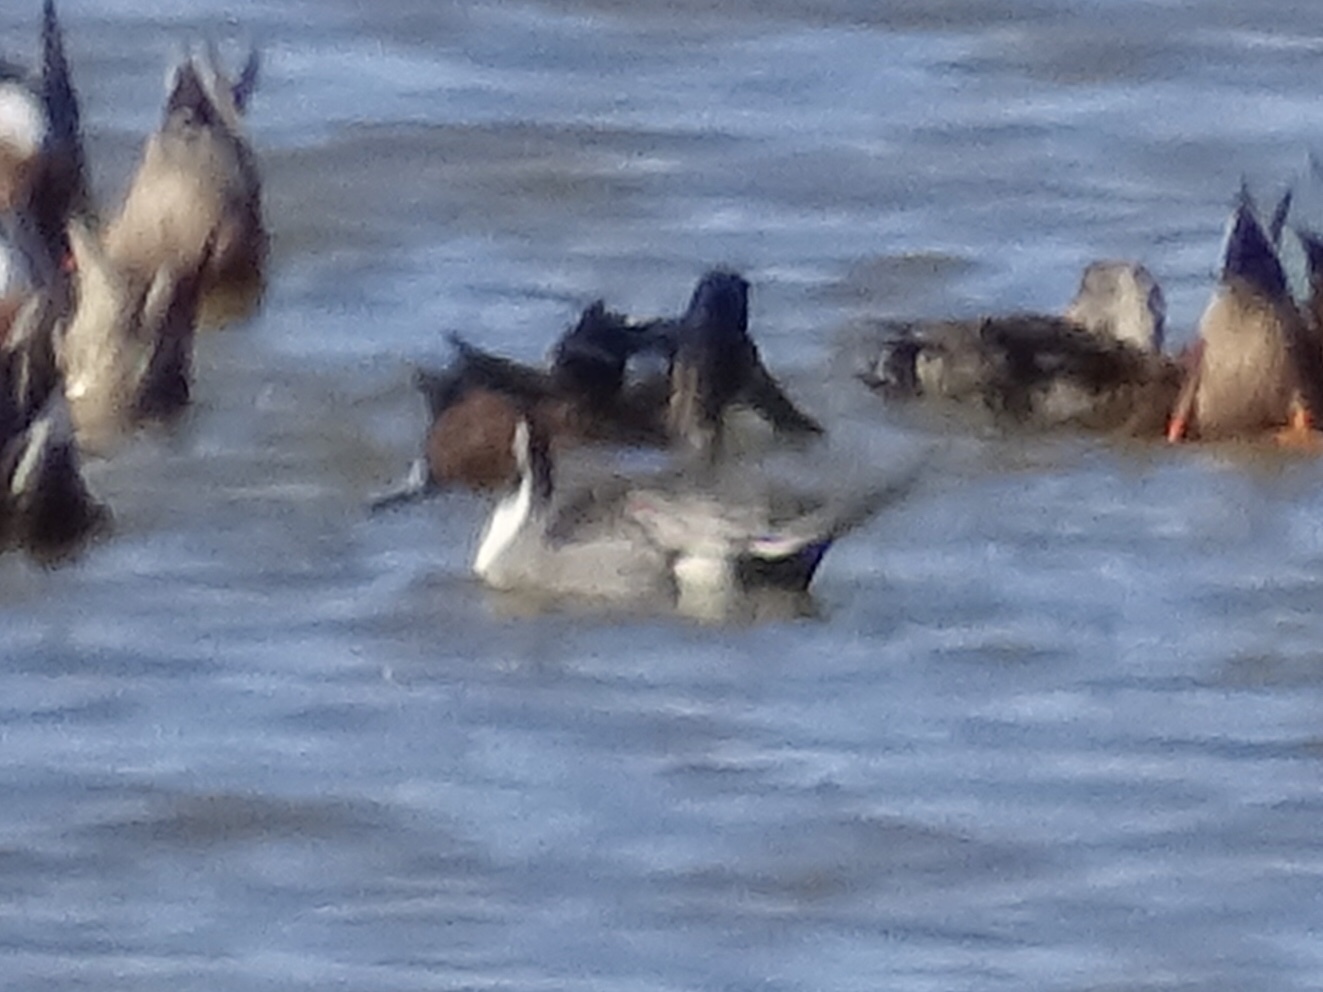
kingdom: Animalia
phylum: Chordata
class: Aves
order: Anseriformes
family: Anatidae
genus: Anas
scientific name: Anas acuta
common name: Northern pintail
